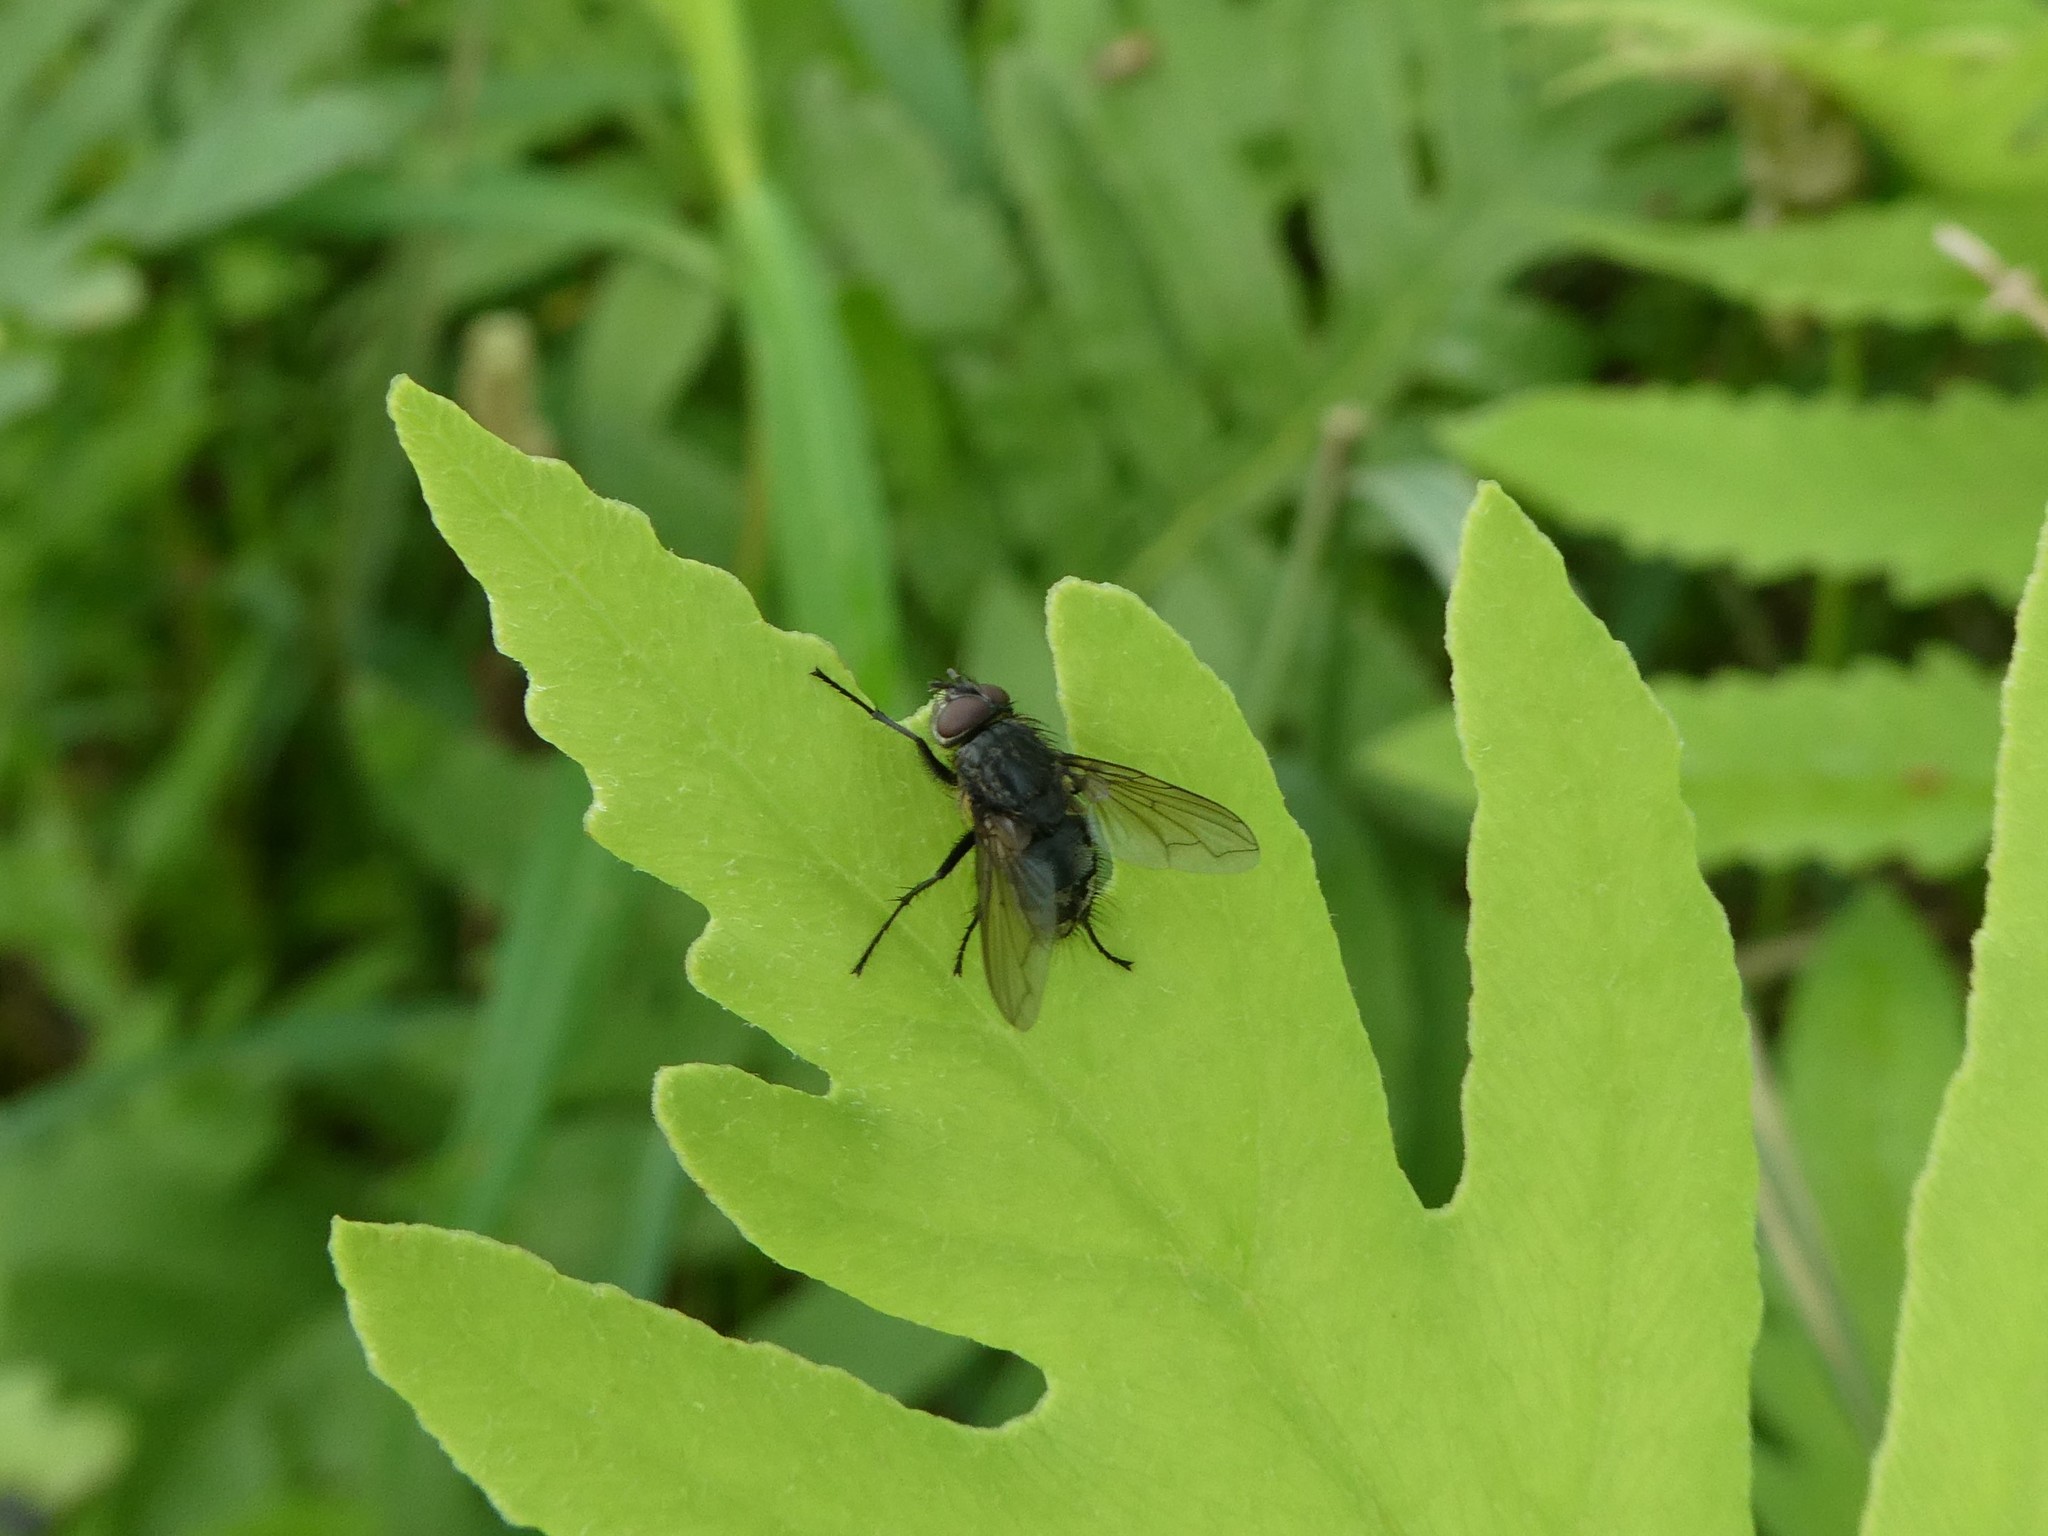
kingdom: Animalia
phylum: Arthropoda
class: Insecta
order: Diptera
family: Polleniidae
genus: Pollenia
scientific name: Pollenia
